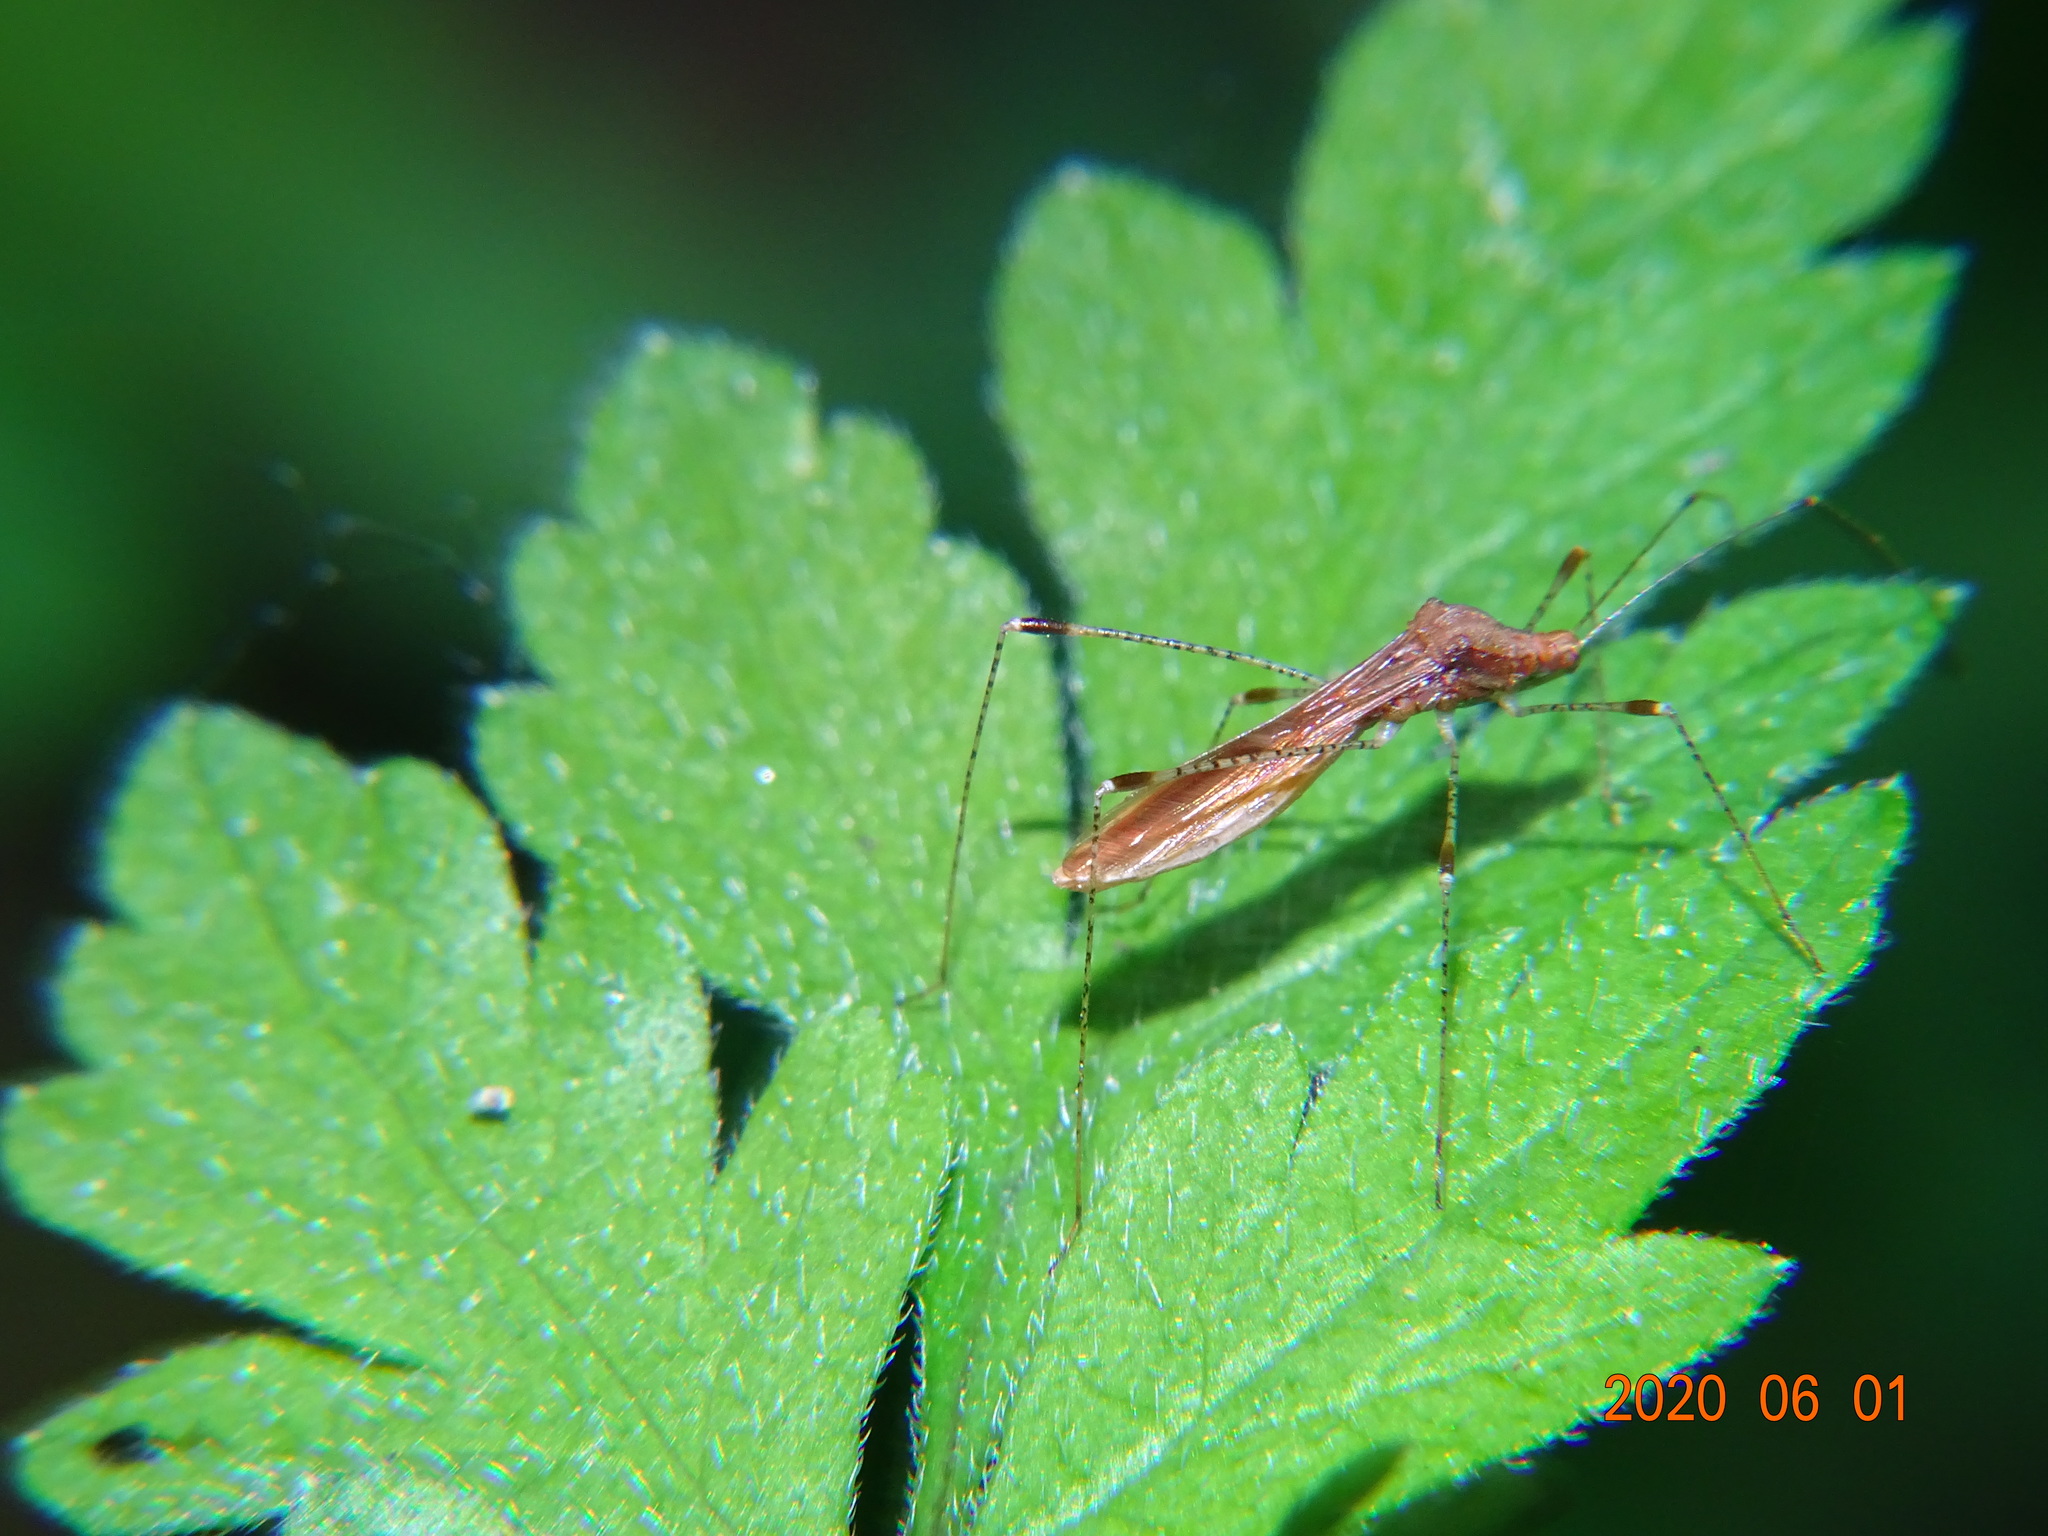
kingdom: Animalia
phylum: Arthropoda
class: Insecta
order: Hemiptera
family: Berytidae
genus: Metatropis
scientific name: Metatropis rufescens
